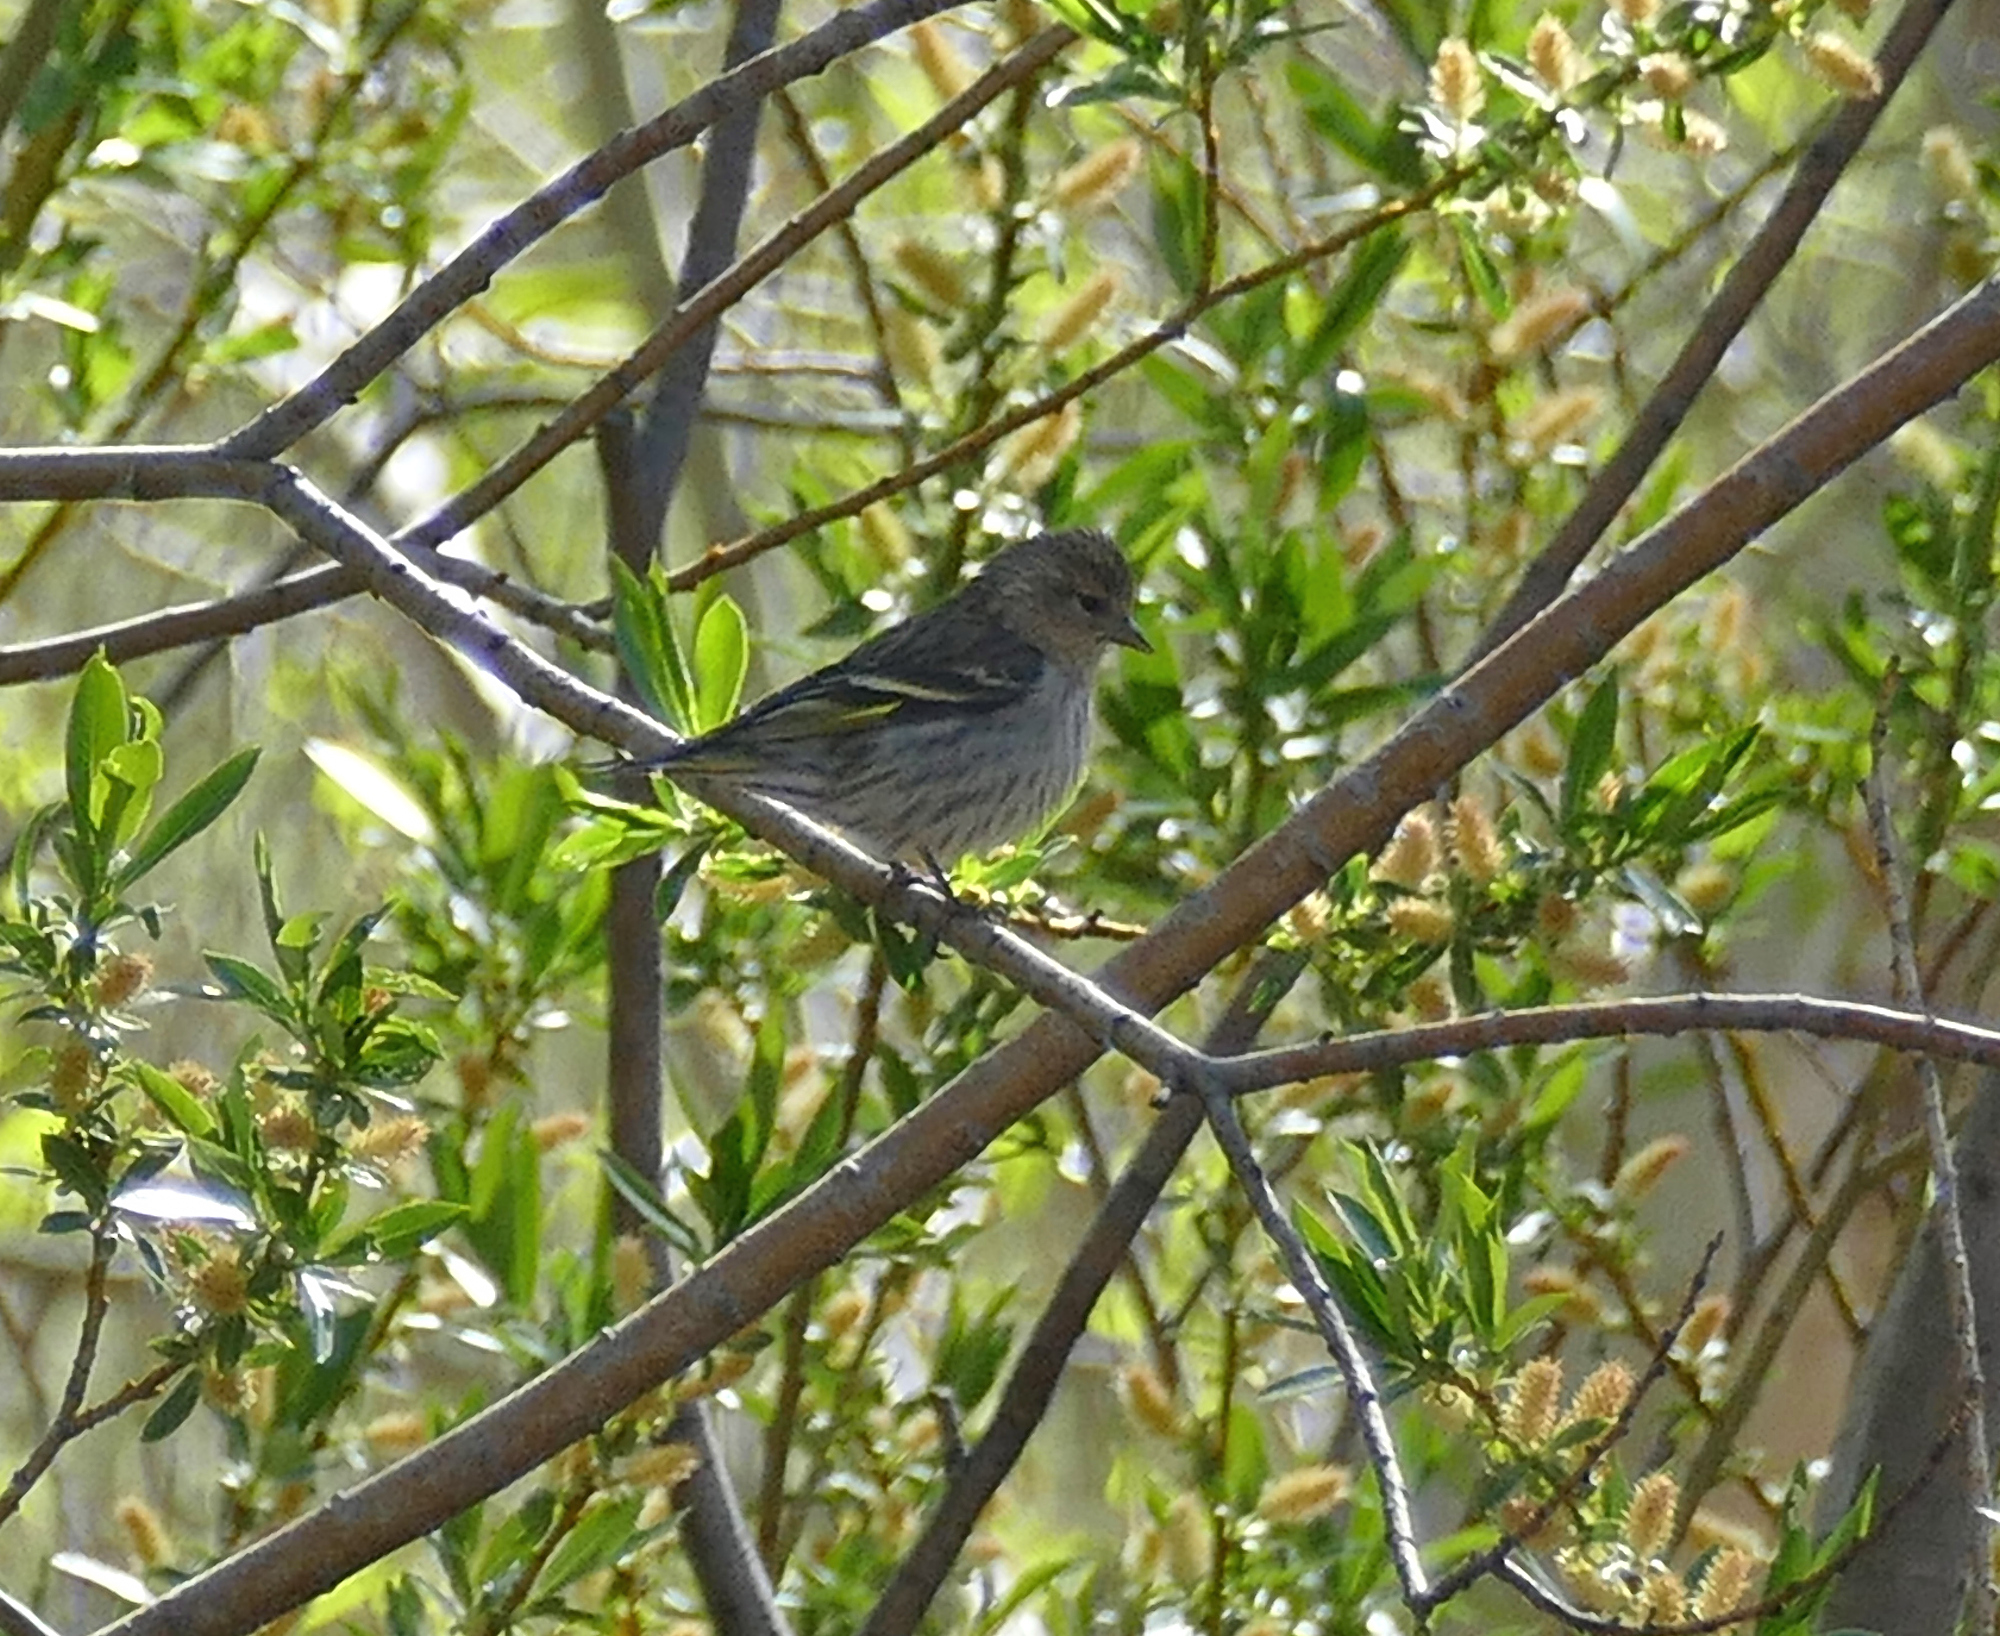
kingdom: Animalia
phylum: Chordata
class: Aves
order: Passeriformes
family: Fringillidae
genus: Spinus
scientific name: Spinus pinus
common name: Pine siskin
